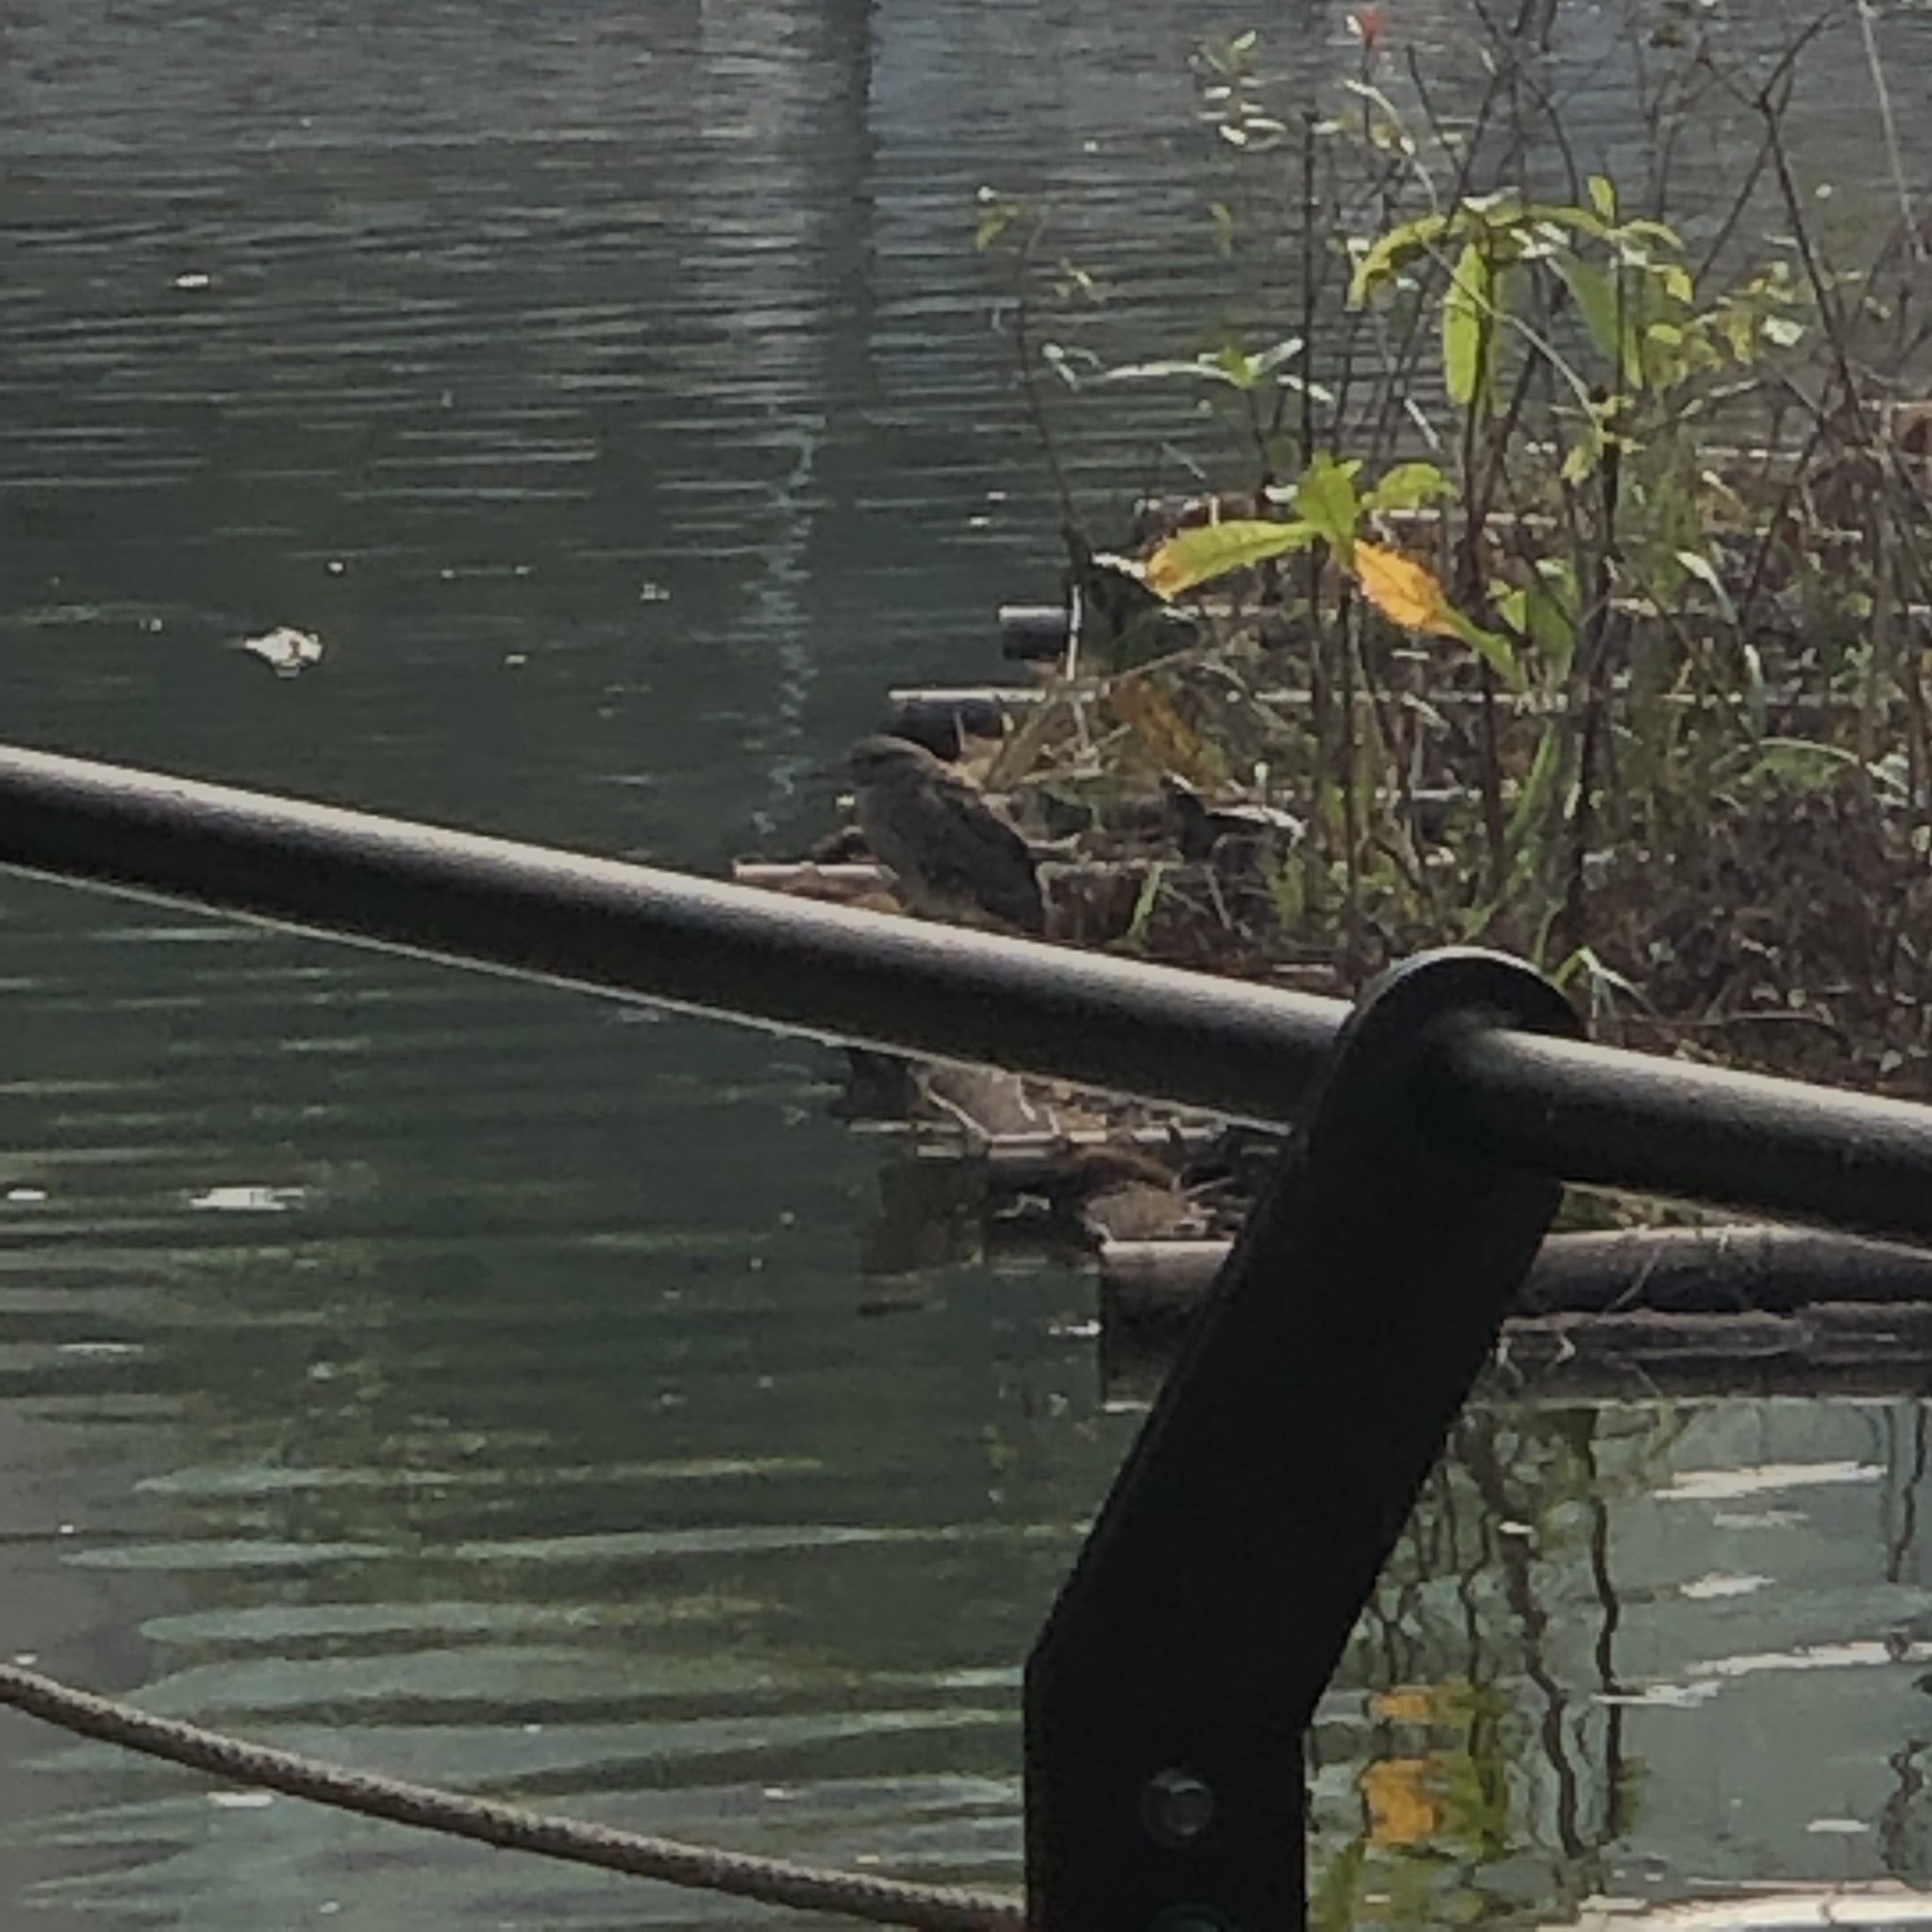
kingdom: Animalia
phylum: Chordata
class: Aves
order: Pelecaniformes
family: Ardeidae
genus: Nycticorax
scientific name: Nycticorax nycticorax
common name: Black-crowned night heron
